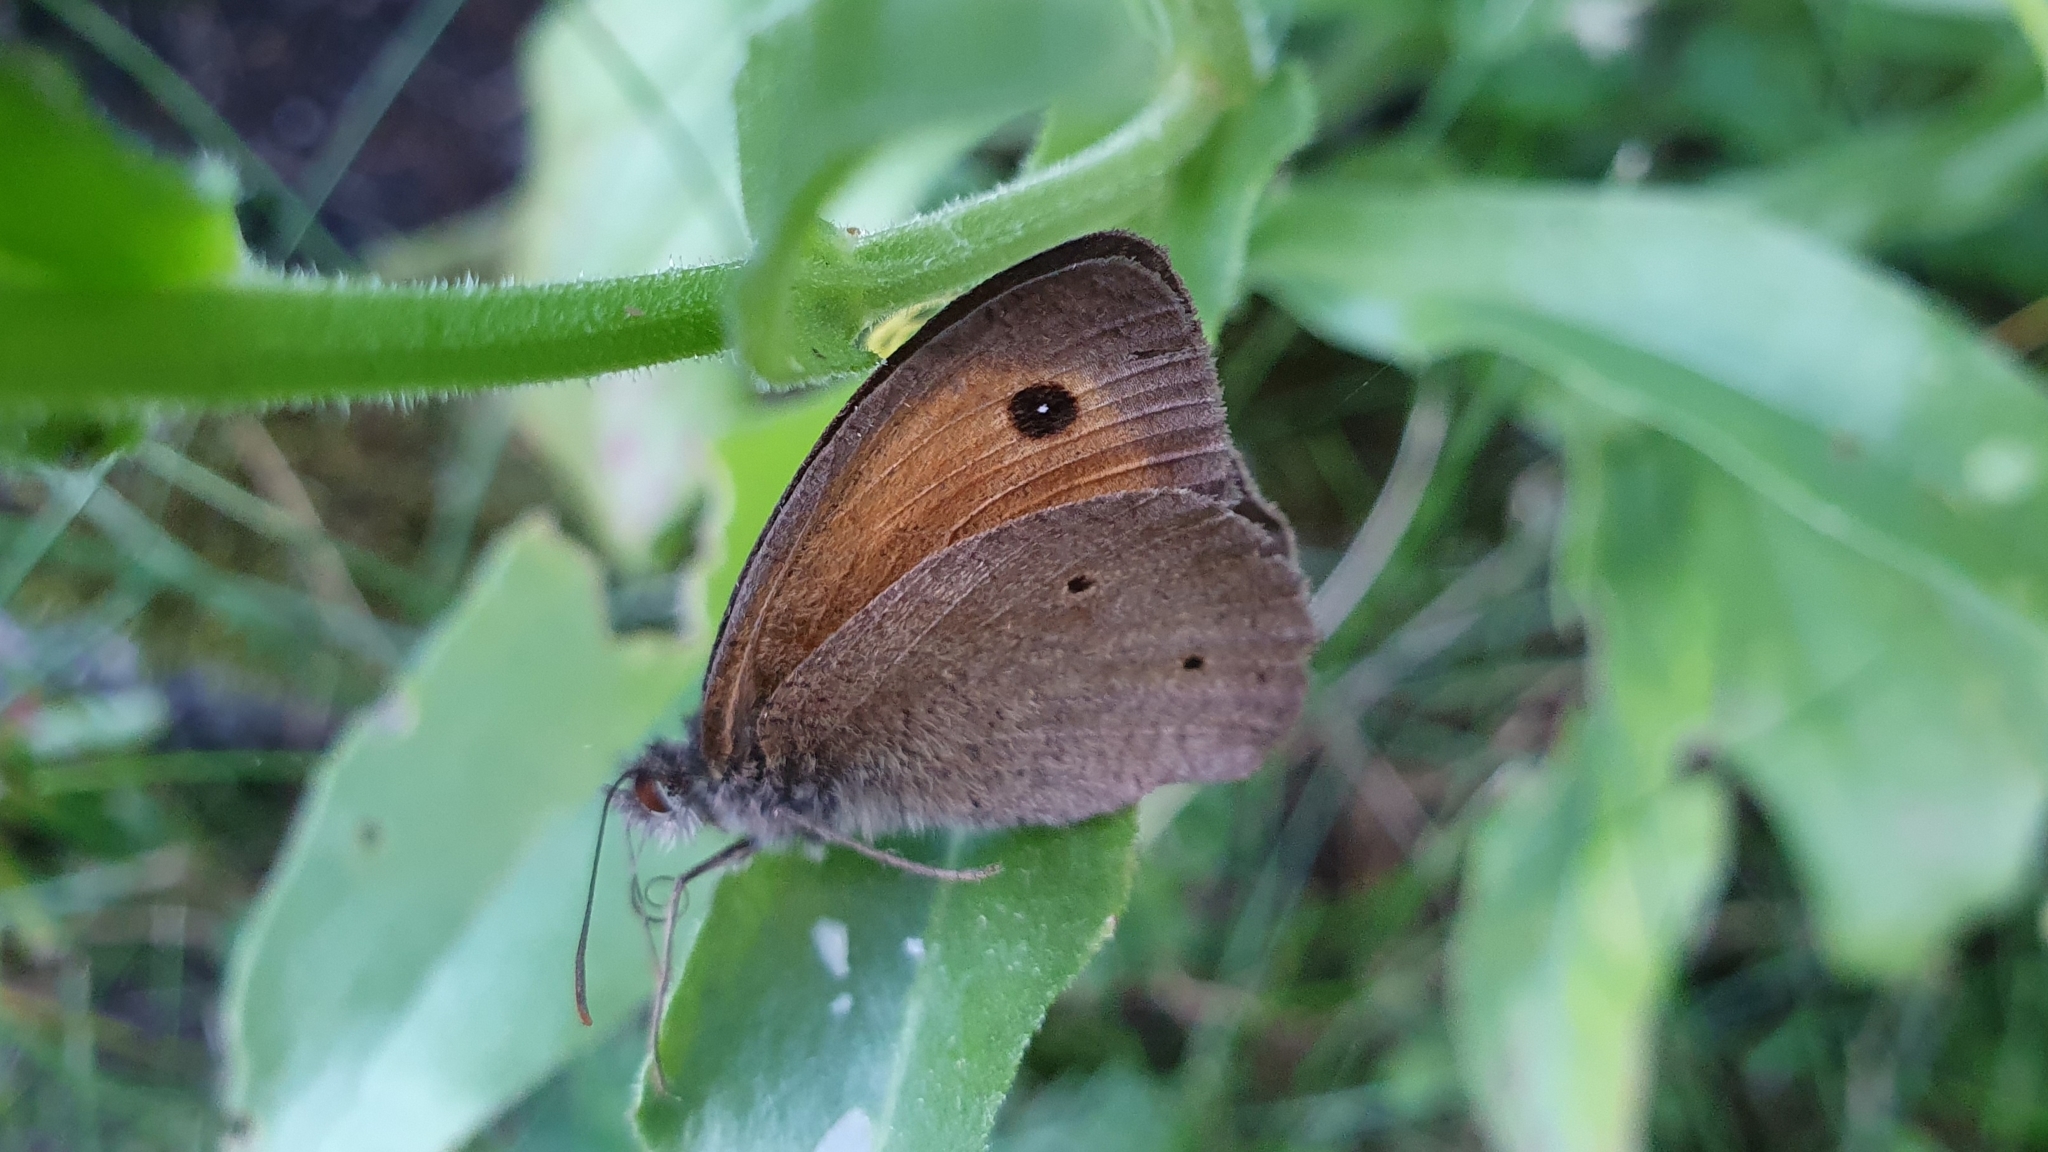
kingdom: Animalia
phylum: Arthropoda
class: Insecta
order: Lepidoptera
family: Nymphalidae
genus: Maniola
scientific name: Maniola jurtina
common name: Meadow brown
